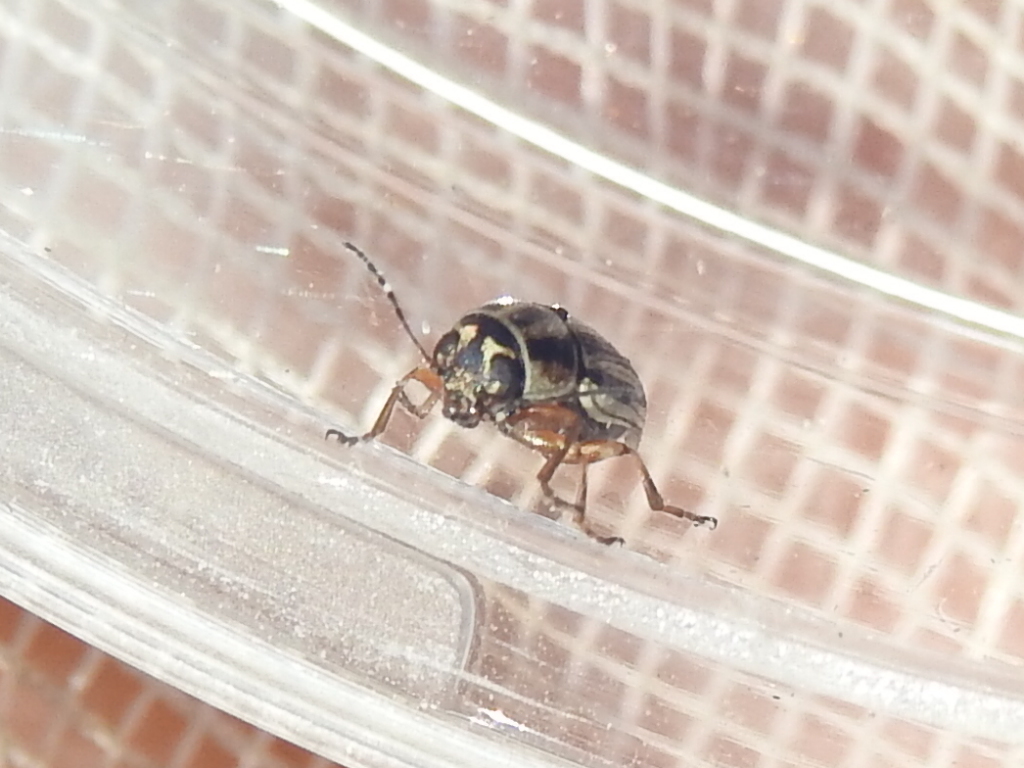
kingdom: Animalia
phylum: Arthropoda
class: Insecta
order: Coleoptera
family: Chrysomelidae
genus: Pachybrachis
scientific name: Pachybrachis dubiosus
